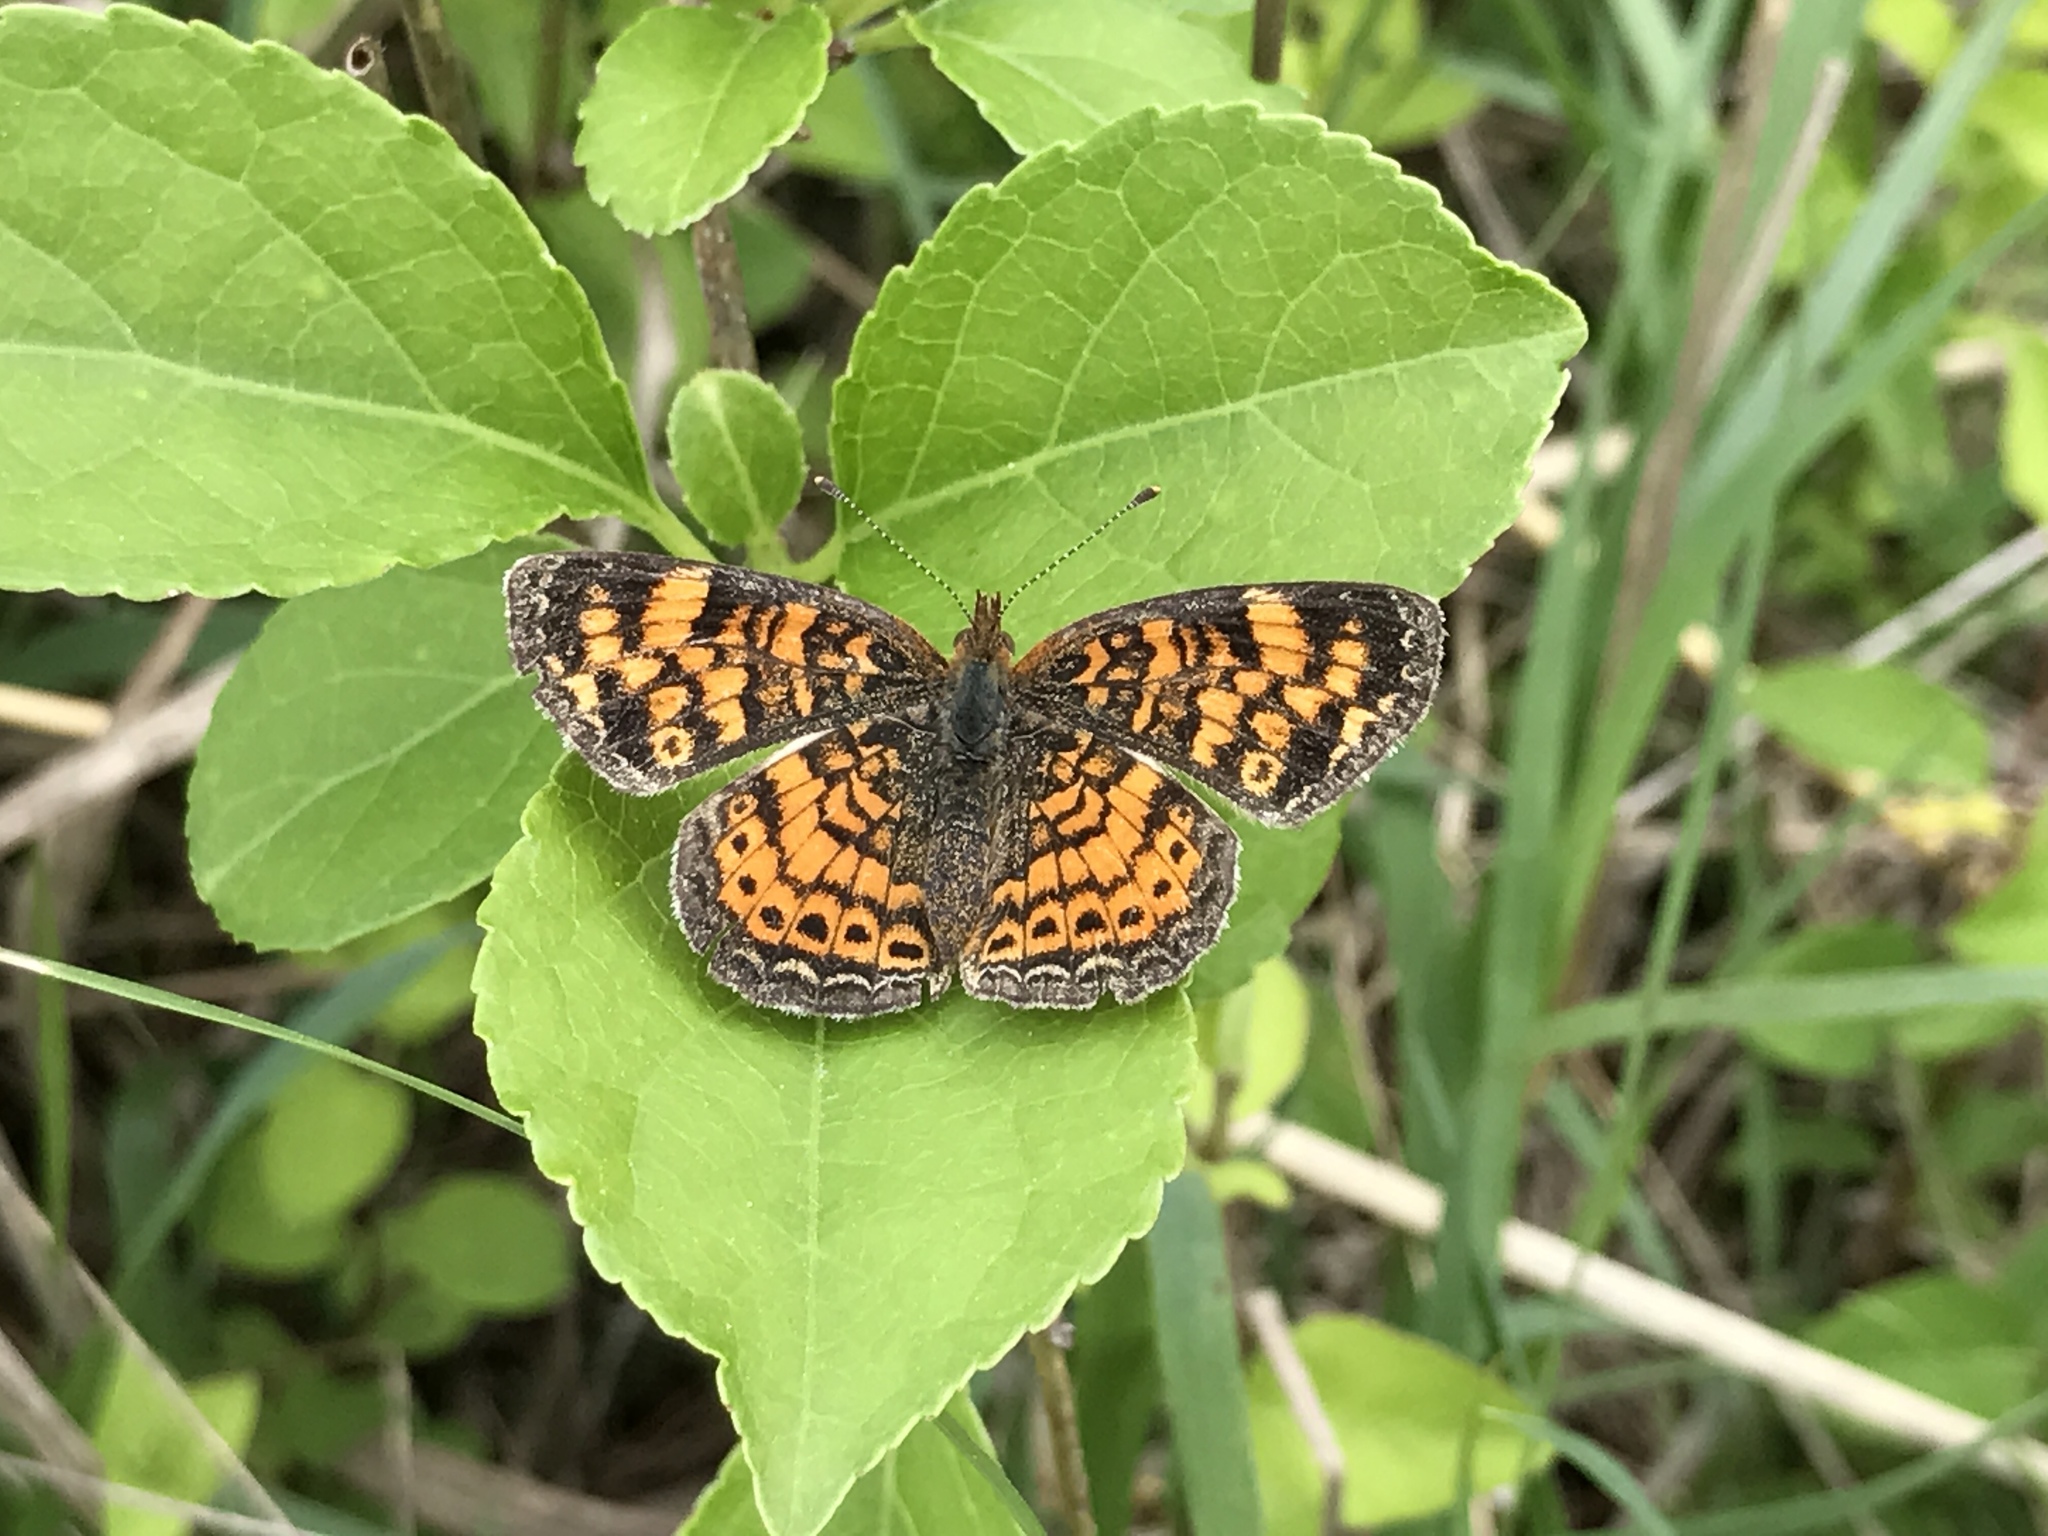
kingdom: Animalia
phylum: Arthropoda
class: Insecta
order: Lepidoptera
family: Nymphalidae
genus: Phyciodes
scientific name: Phyciodes tharos
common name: Pearl crescent
